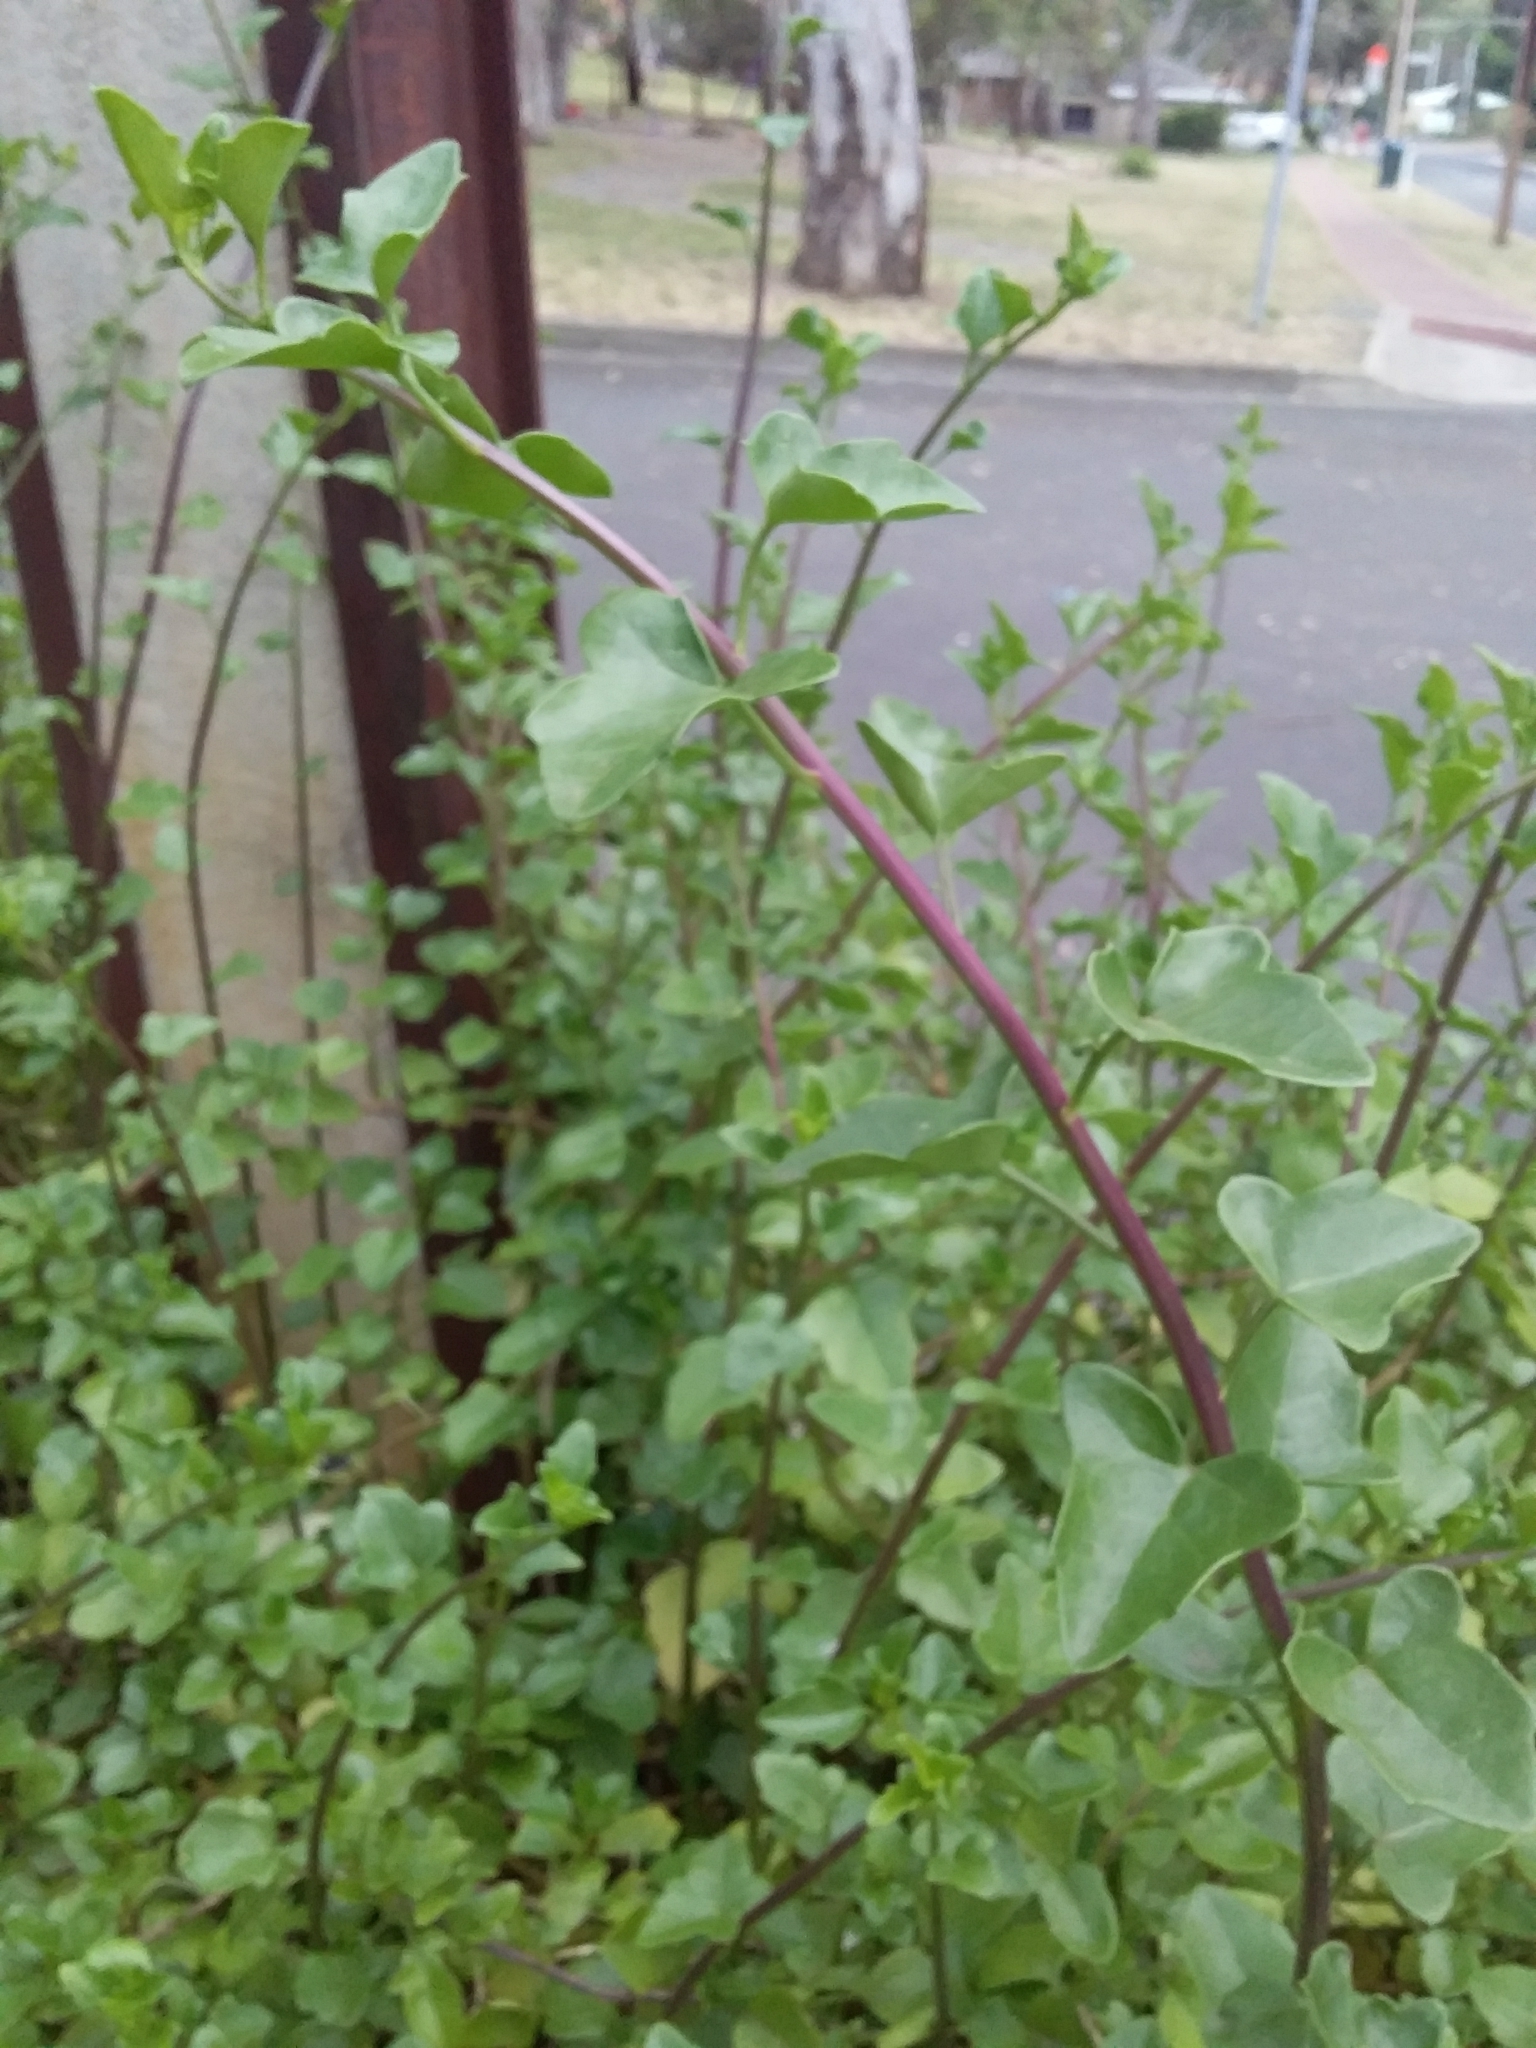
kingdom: Plantae
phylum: Tracheophyta
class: Magnoliopsida
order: Asterales
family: Asteraceae
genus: Senecio
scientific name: Senecio angulatus
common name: Climbing groundsel
